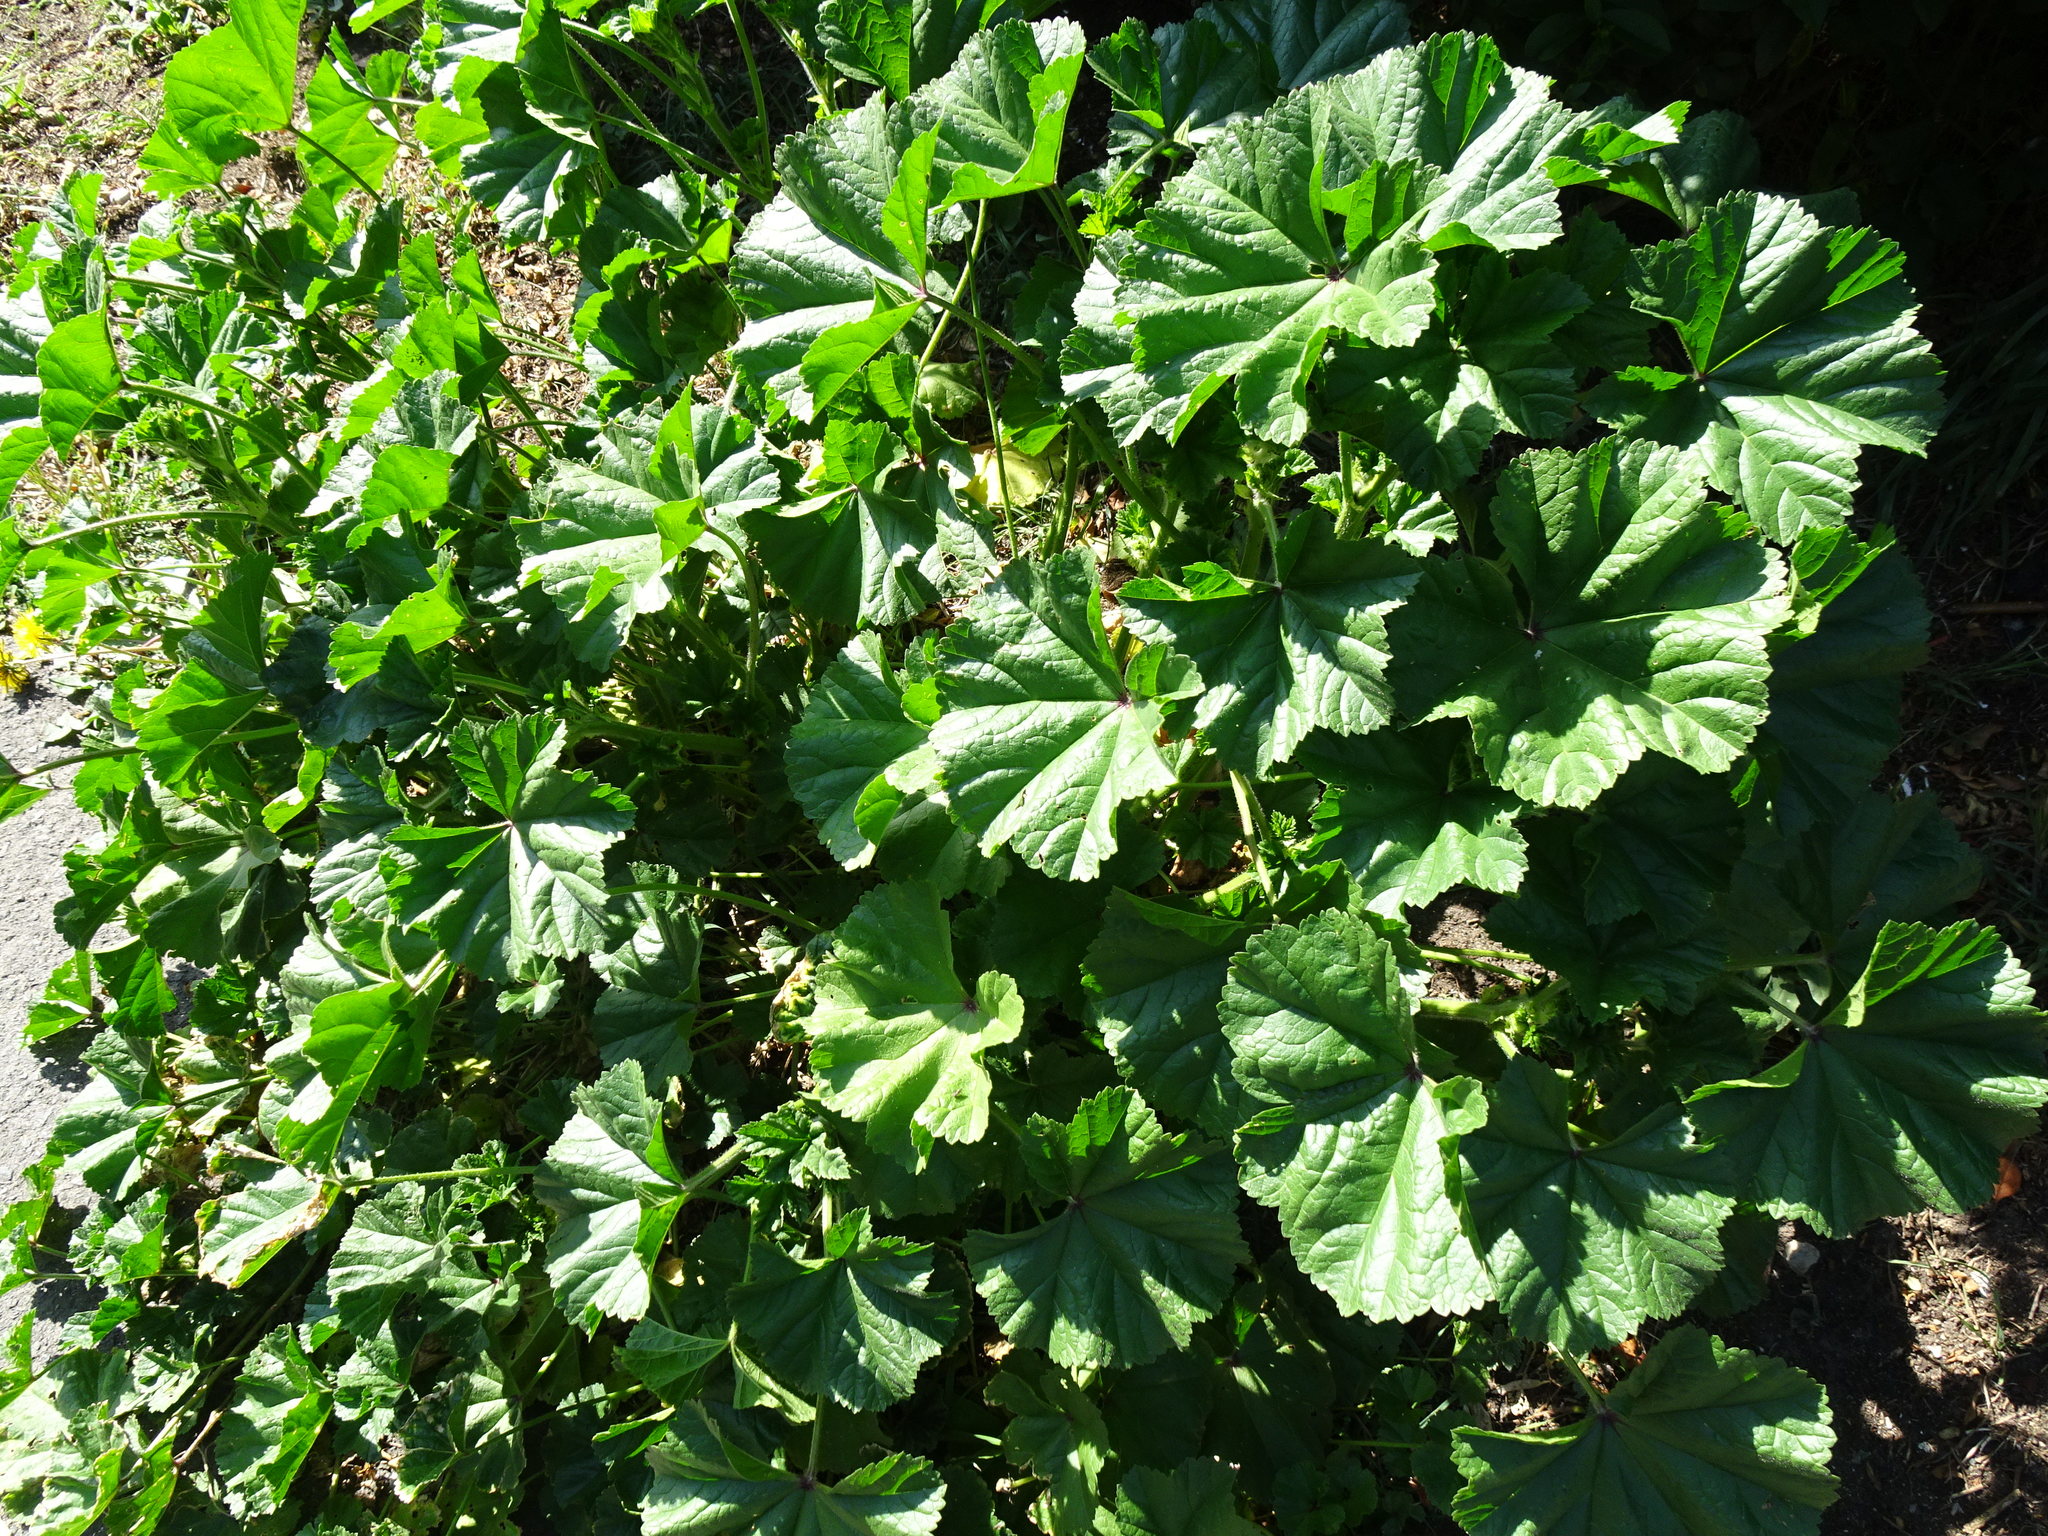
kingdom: Plantae
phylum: Tracheophyta
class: Magnoliopsida
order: Malvales
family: Malvaceae
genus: Malva
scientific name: Malva sylvestris
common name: Common mallow
